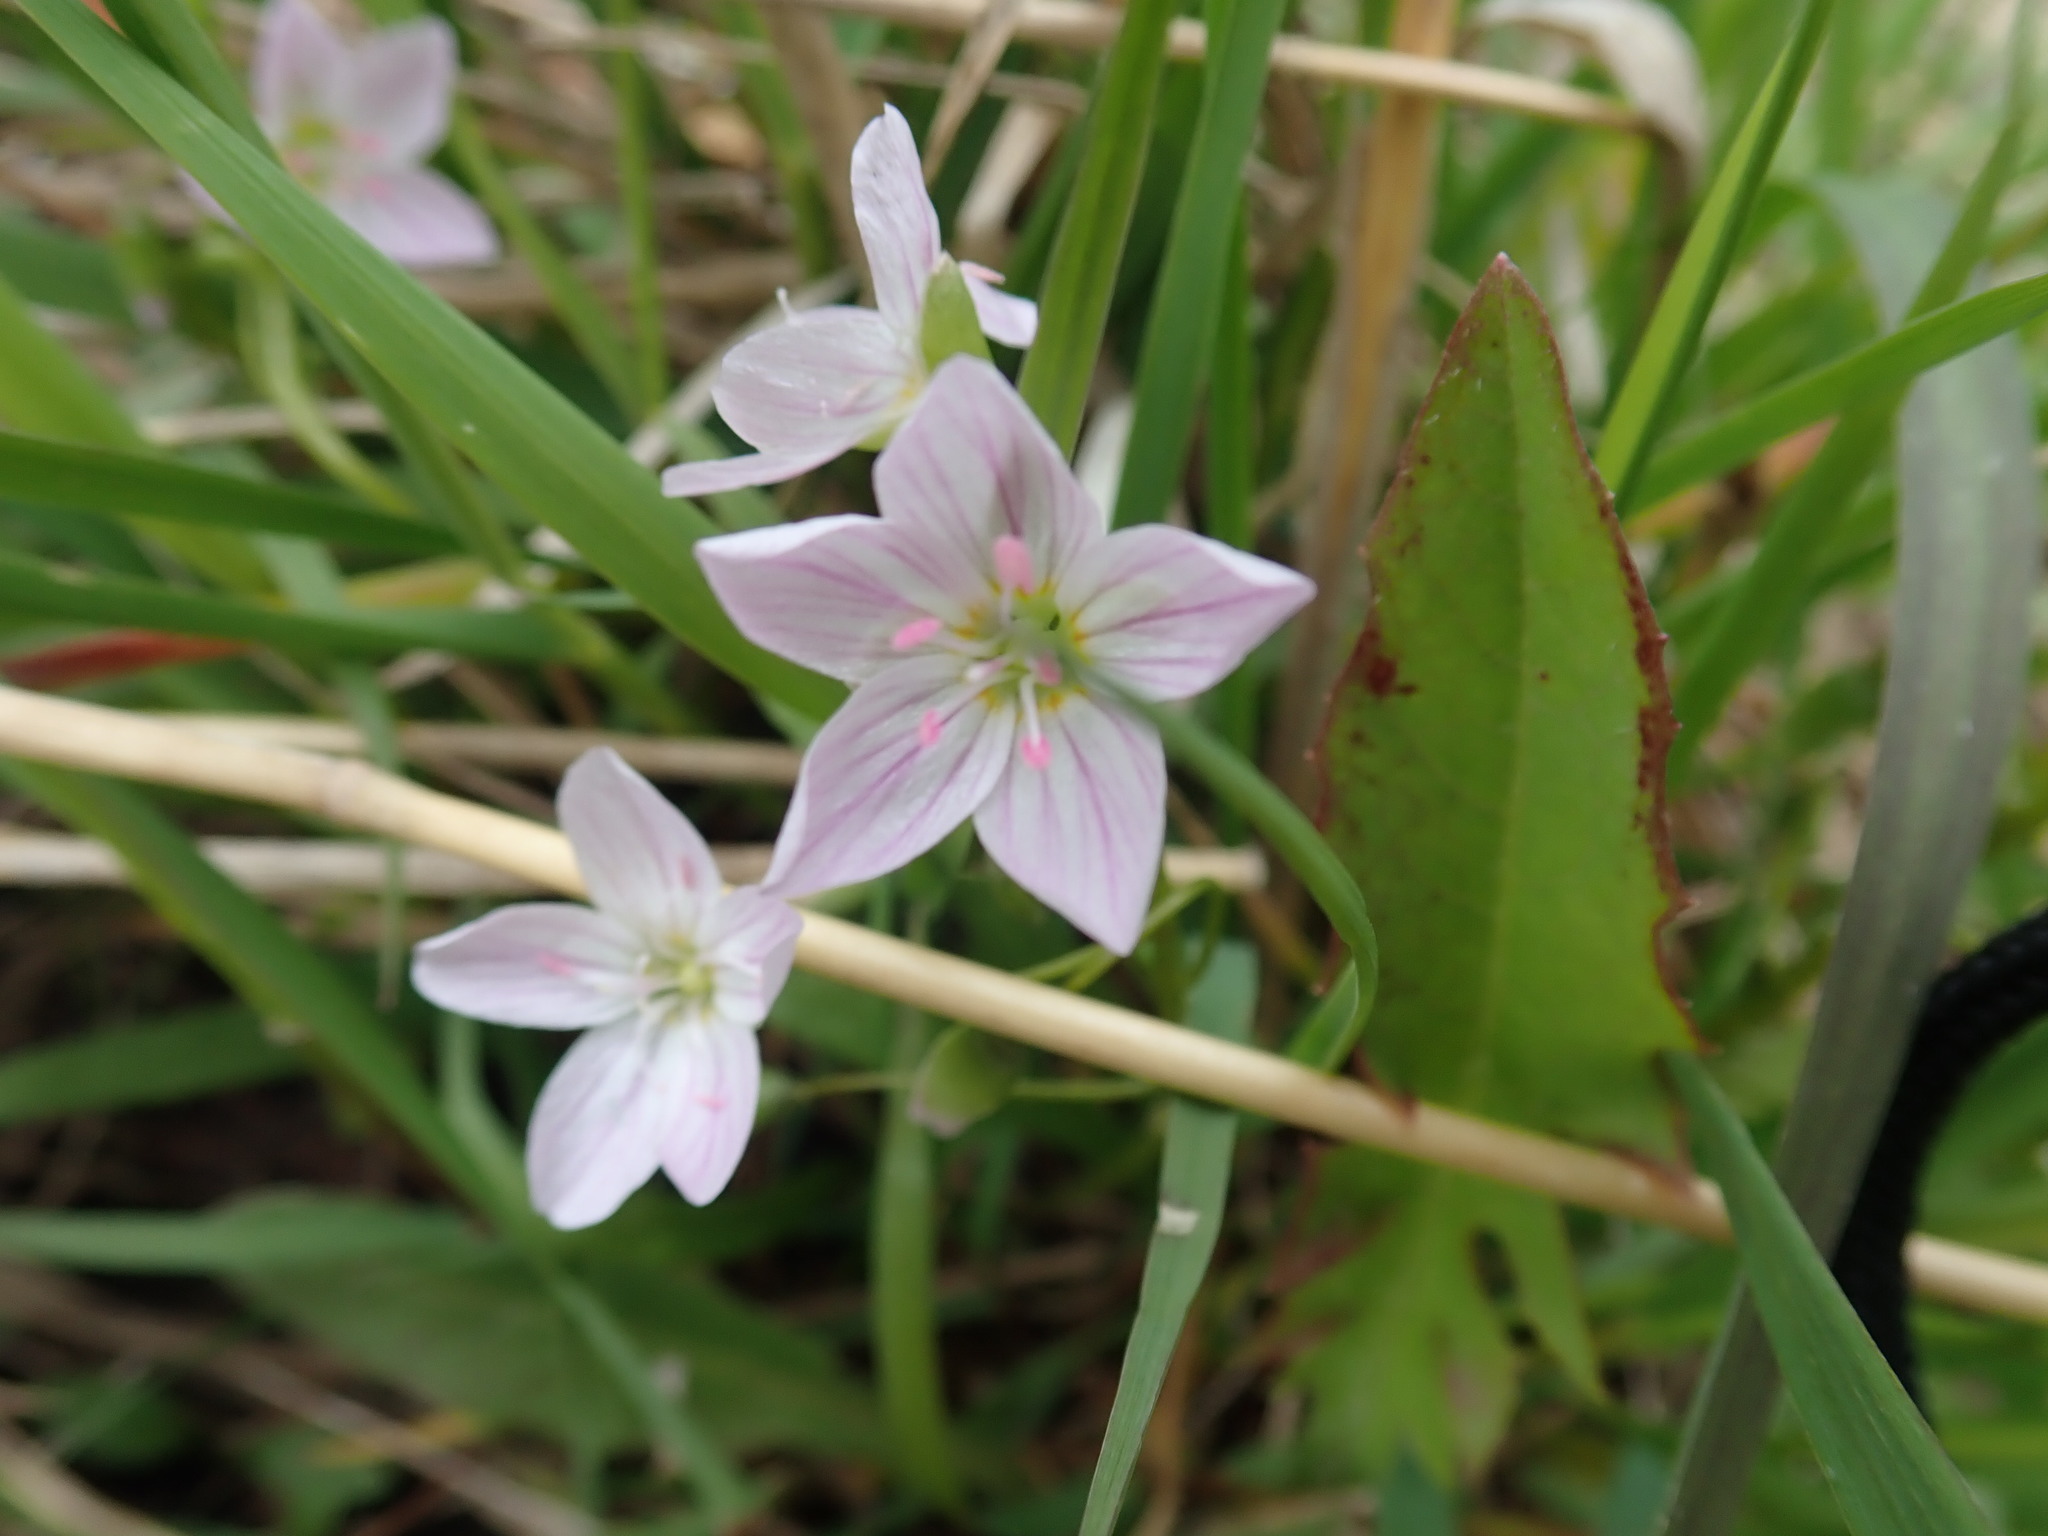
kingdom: Plantae
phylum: Tracheophyta
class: Magnoliopsida
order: Caryophyllales
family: Montiaceae
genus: Claytonia
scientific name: Claytonia virginica
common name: Virginia springbeauty
